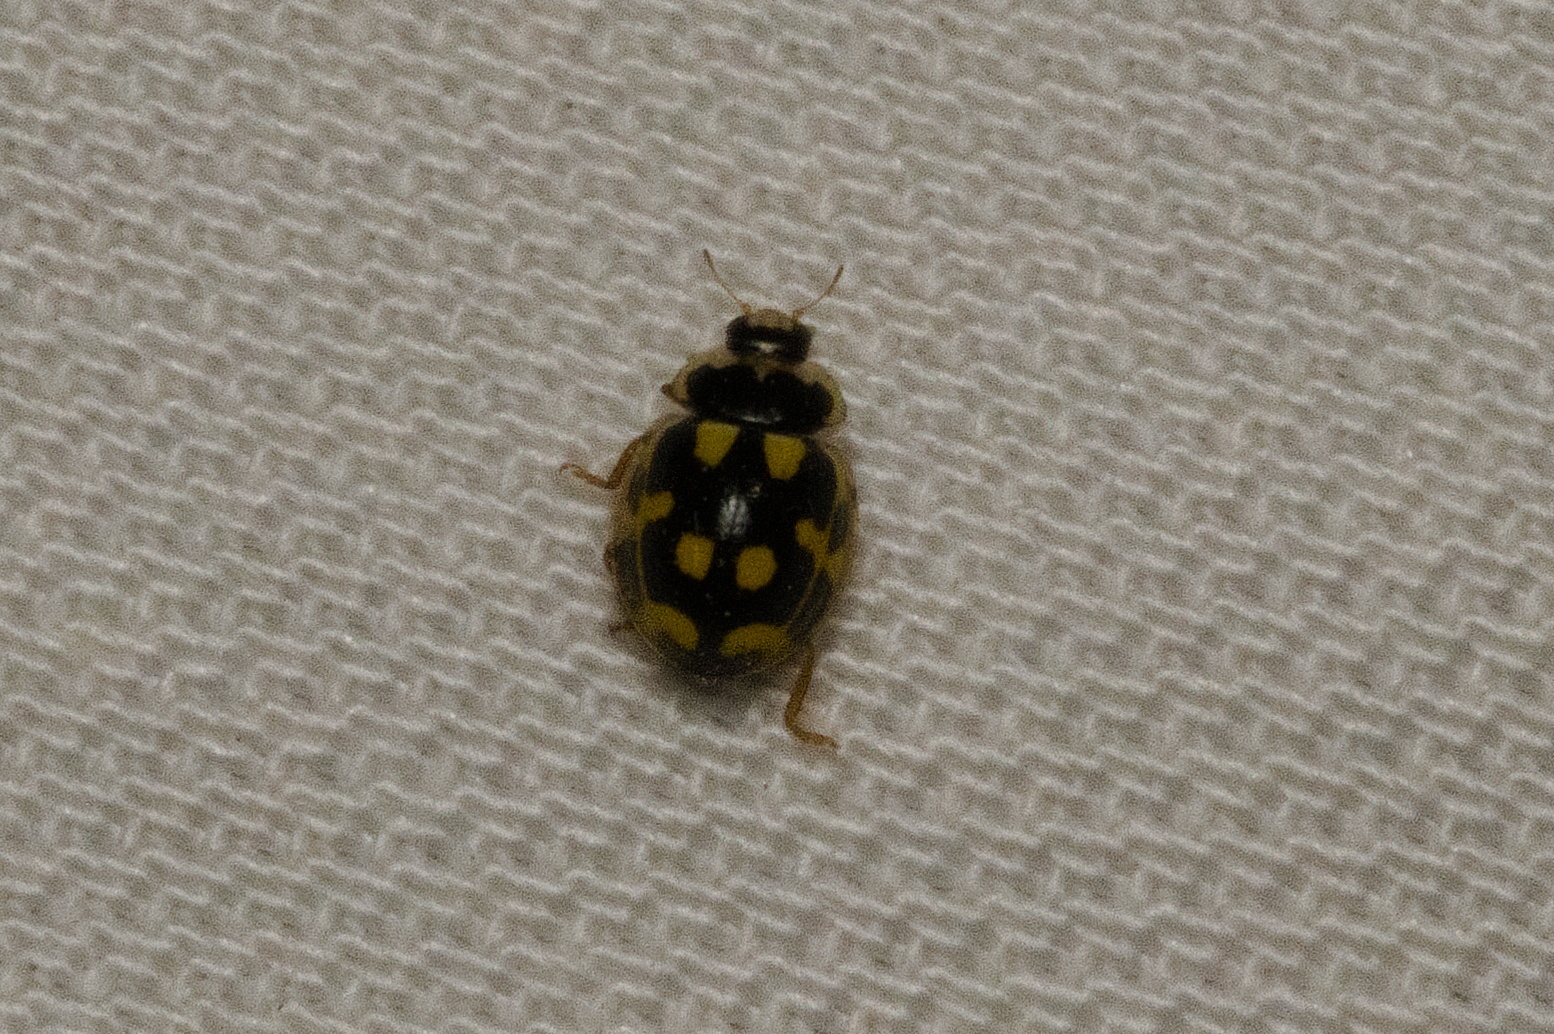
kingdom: Animalia
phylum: Arthropoda
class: Insecta
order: Coleoptera
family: Coccinellidae
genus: Propylaea
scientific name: Propylaea quatuordecimpunctata
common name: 14-spotted ladybird beetle
